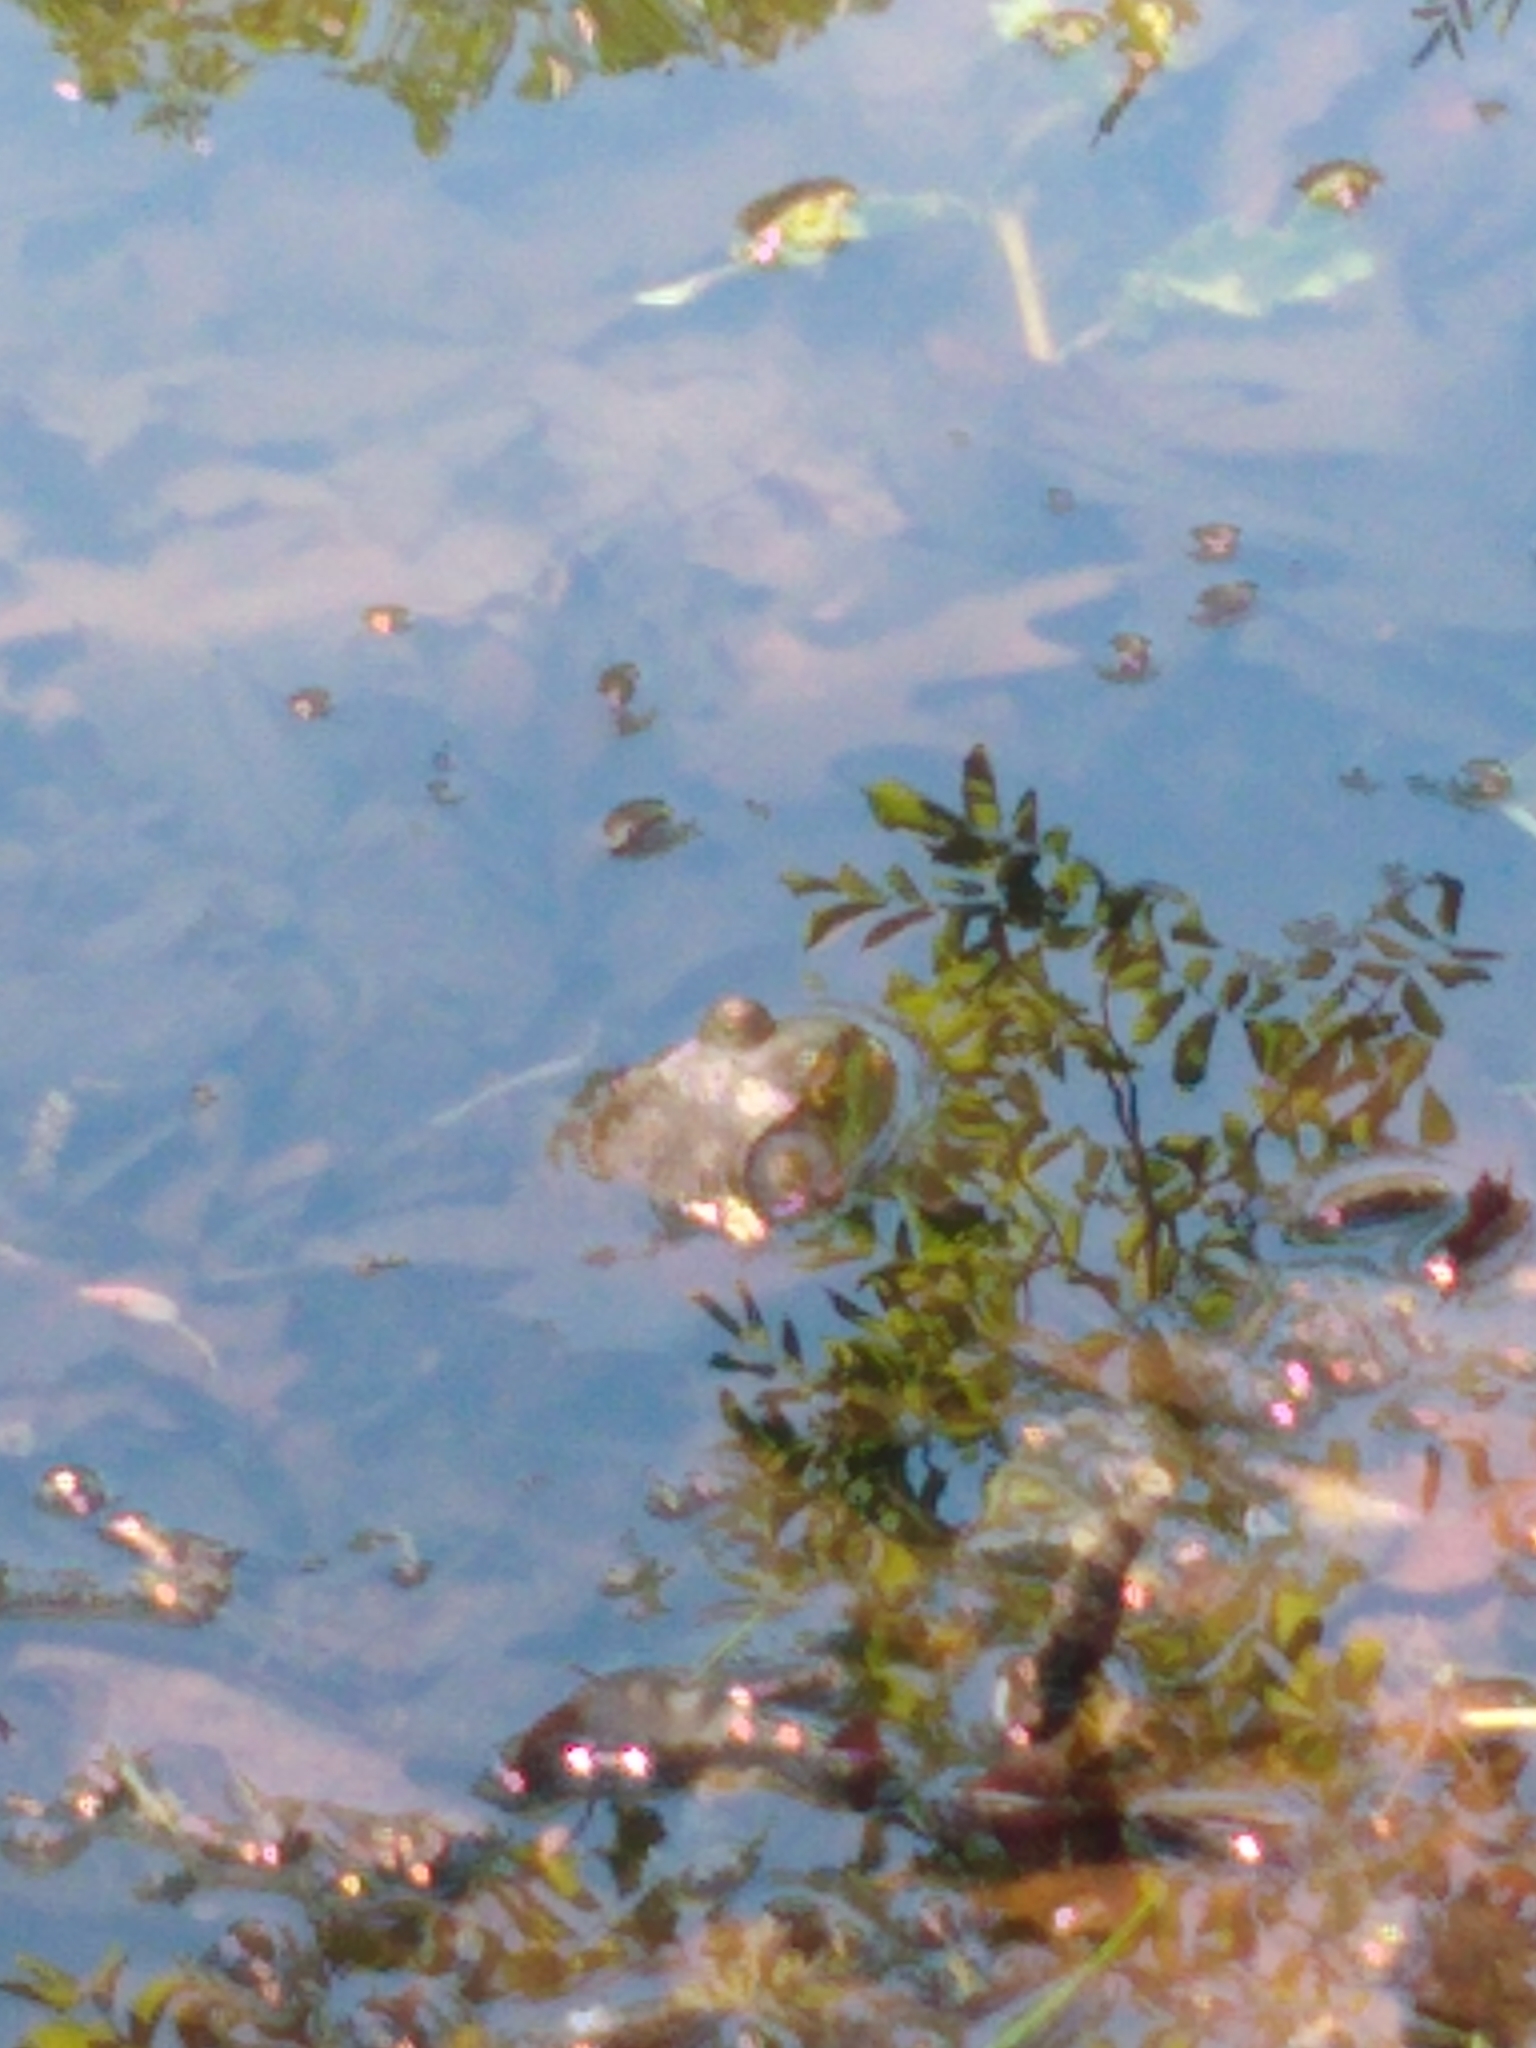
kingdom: Animalia
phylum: Chordata
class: Amphibia
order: Anura
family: Ranidae
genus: Lithobates
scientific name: Lithobates catesbeianus
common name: American bullfrog
